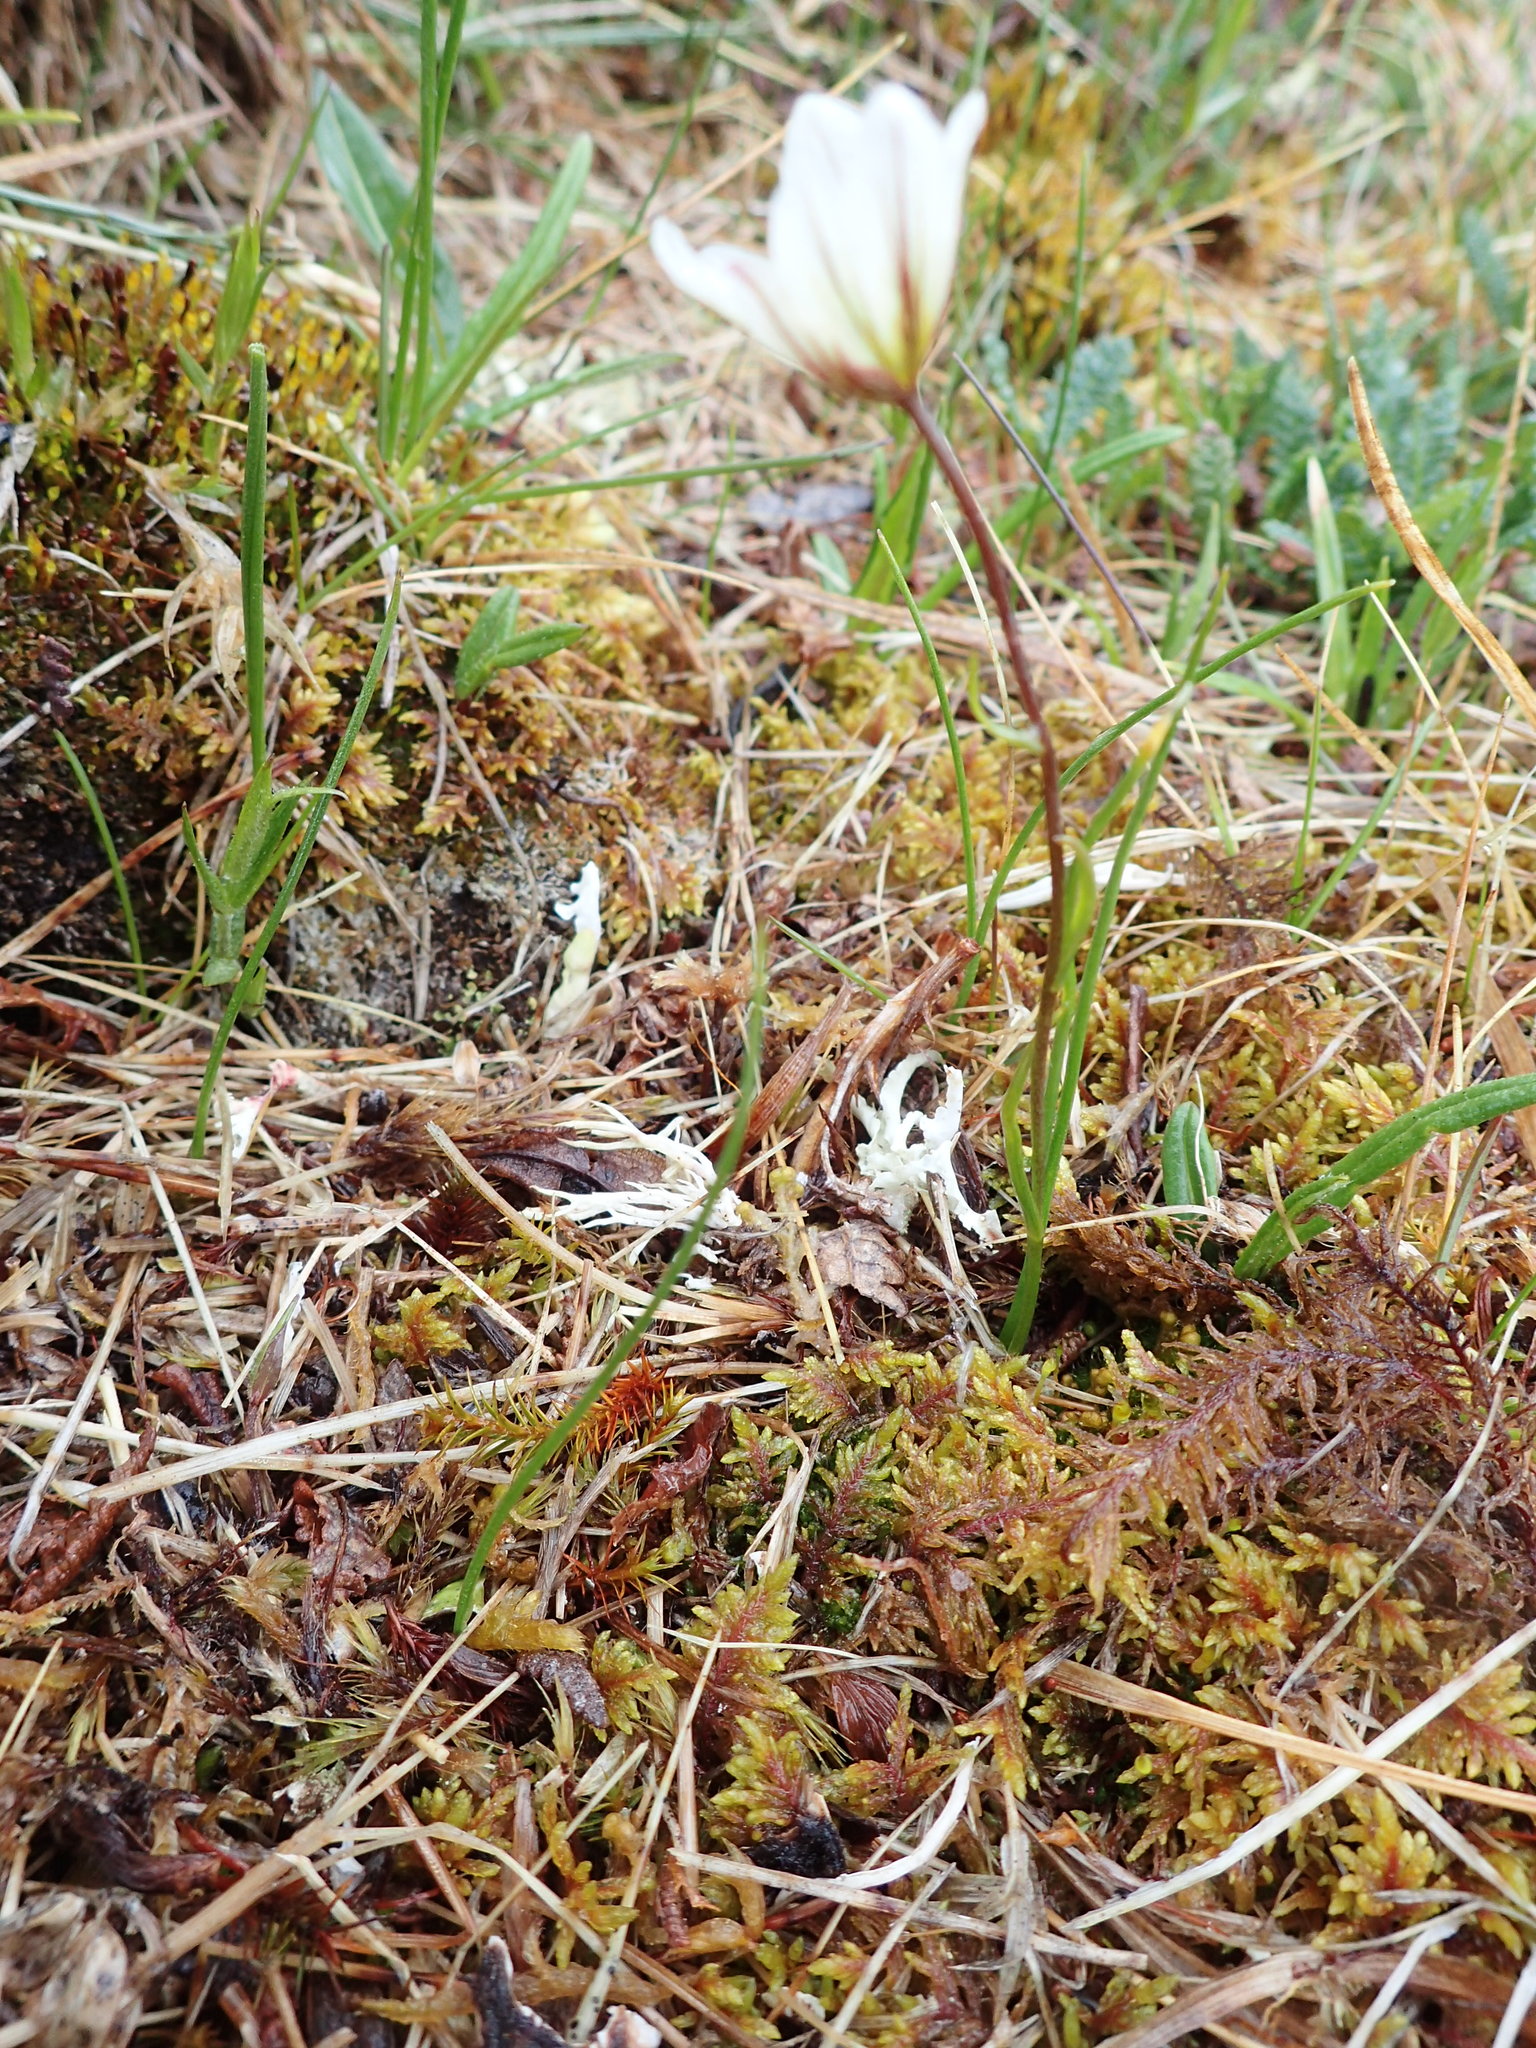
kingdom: Plantae
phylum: Tracheophyta
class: Liliopsida
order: Liliales
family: Liliaceae
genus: Gagea
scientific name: Gagea serotina
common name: Snowdon lily
